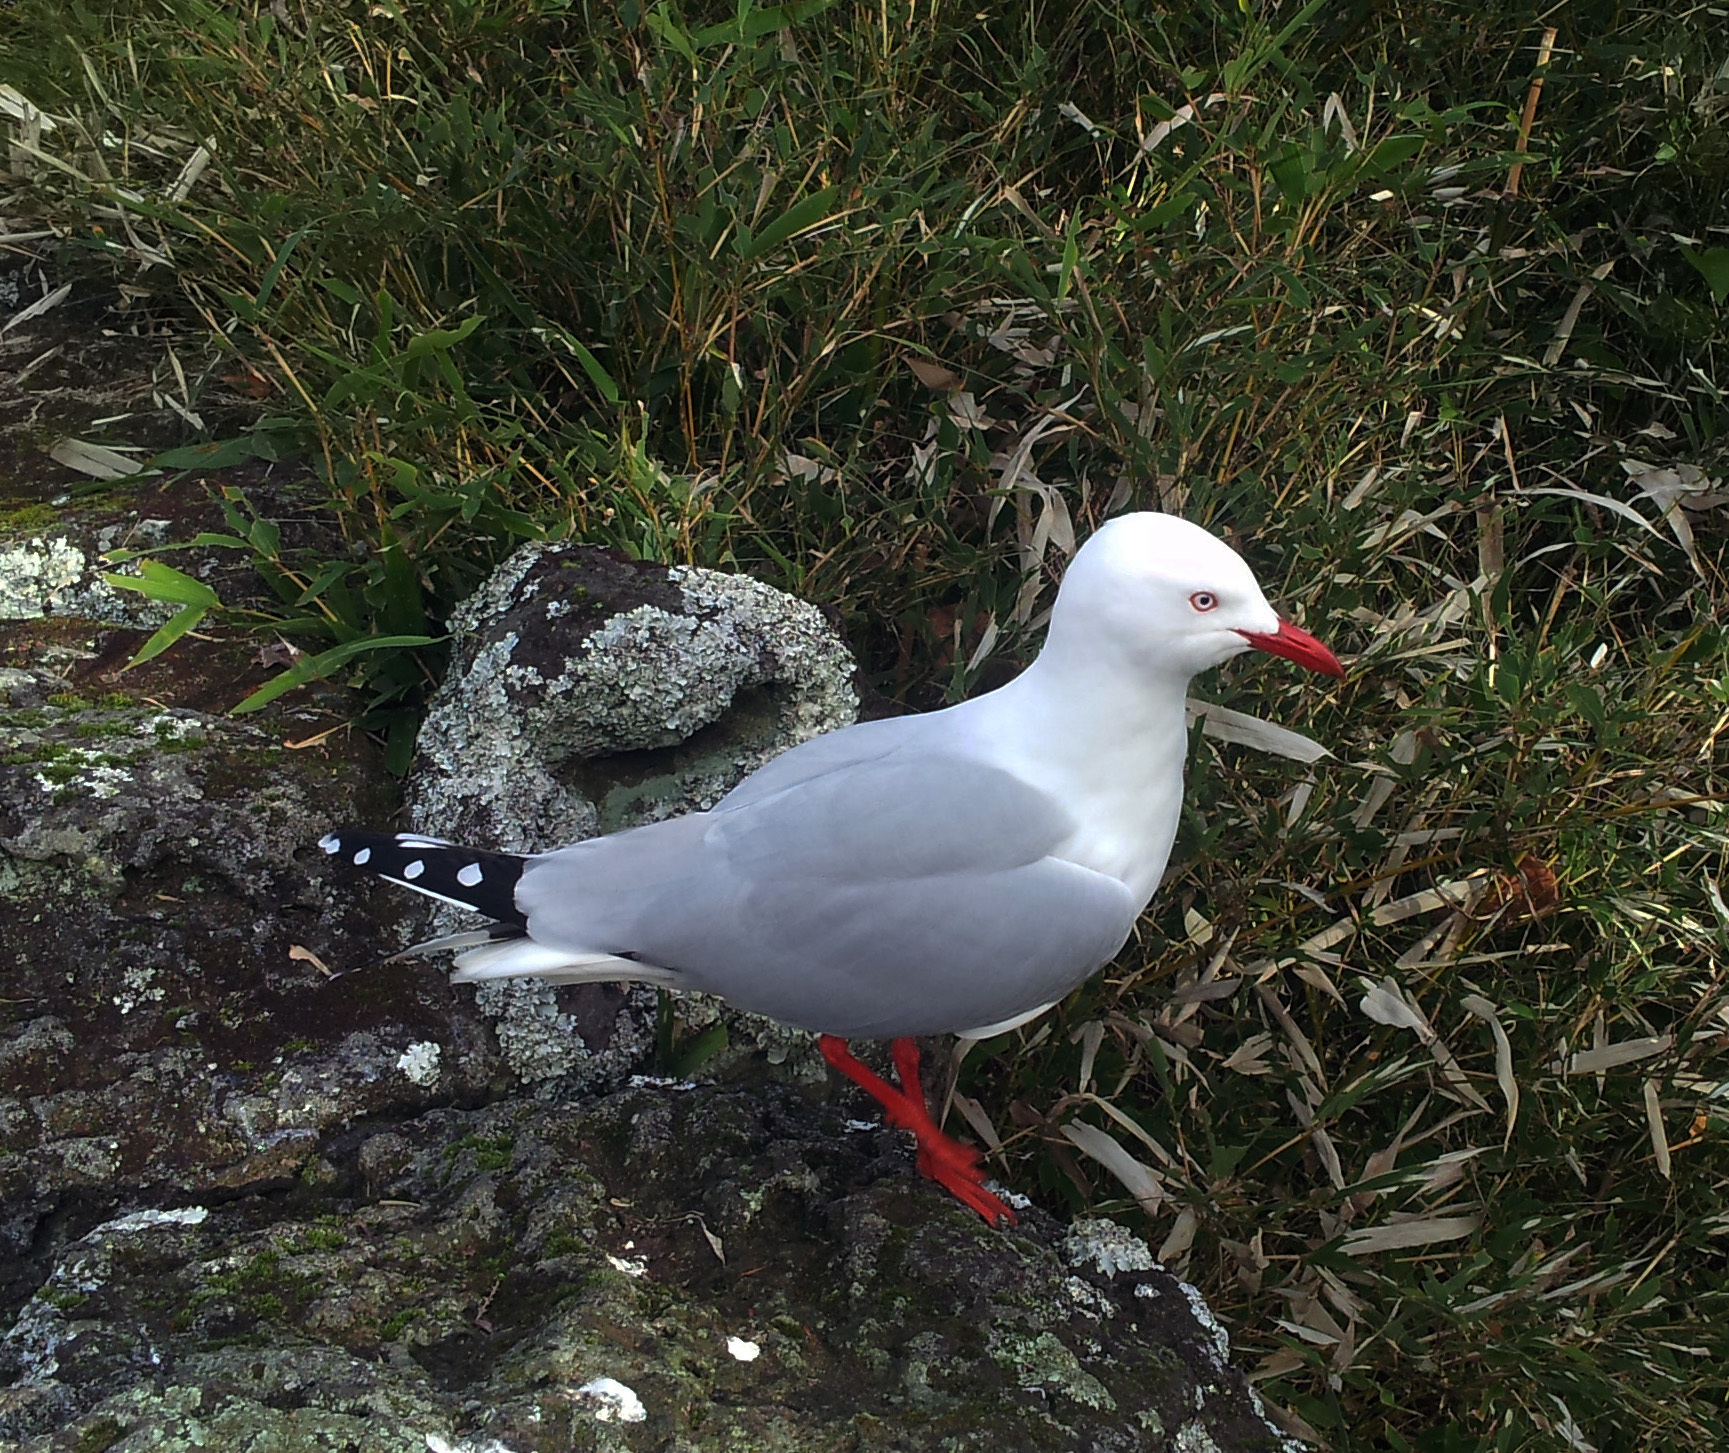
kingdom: Animalia
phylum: Chordata
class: Aves
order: Charadriiformes
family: Laridae
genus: Chroicocephalus
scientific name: Chroicocephalus novaehollandiae
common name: Silver gull
